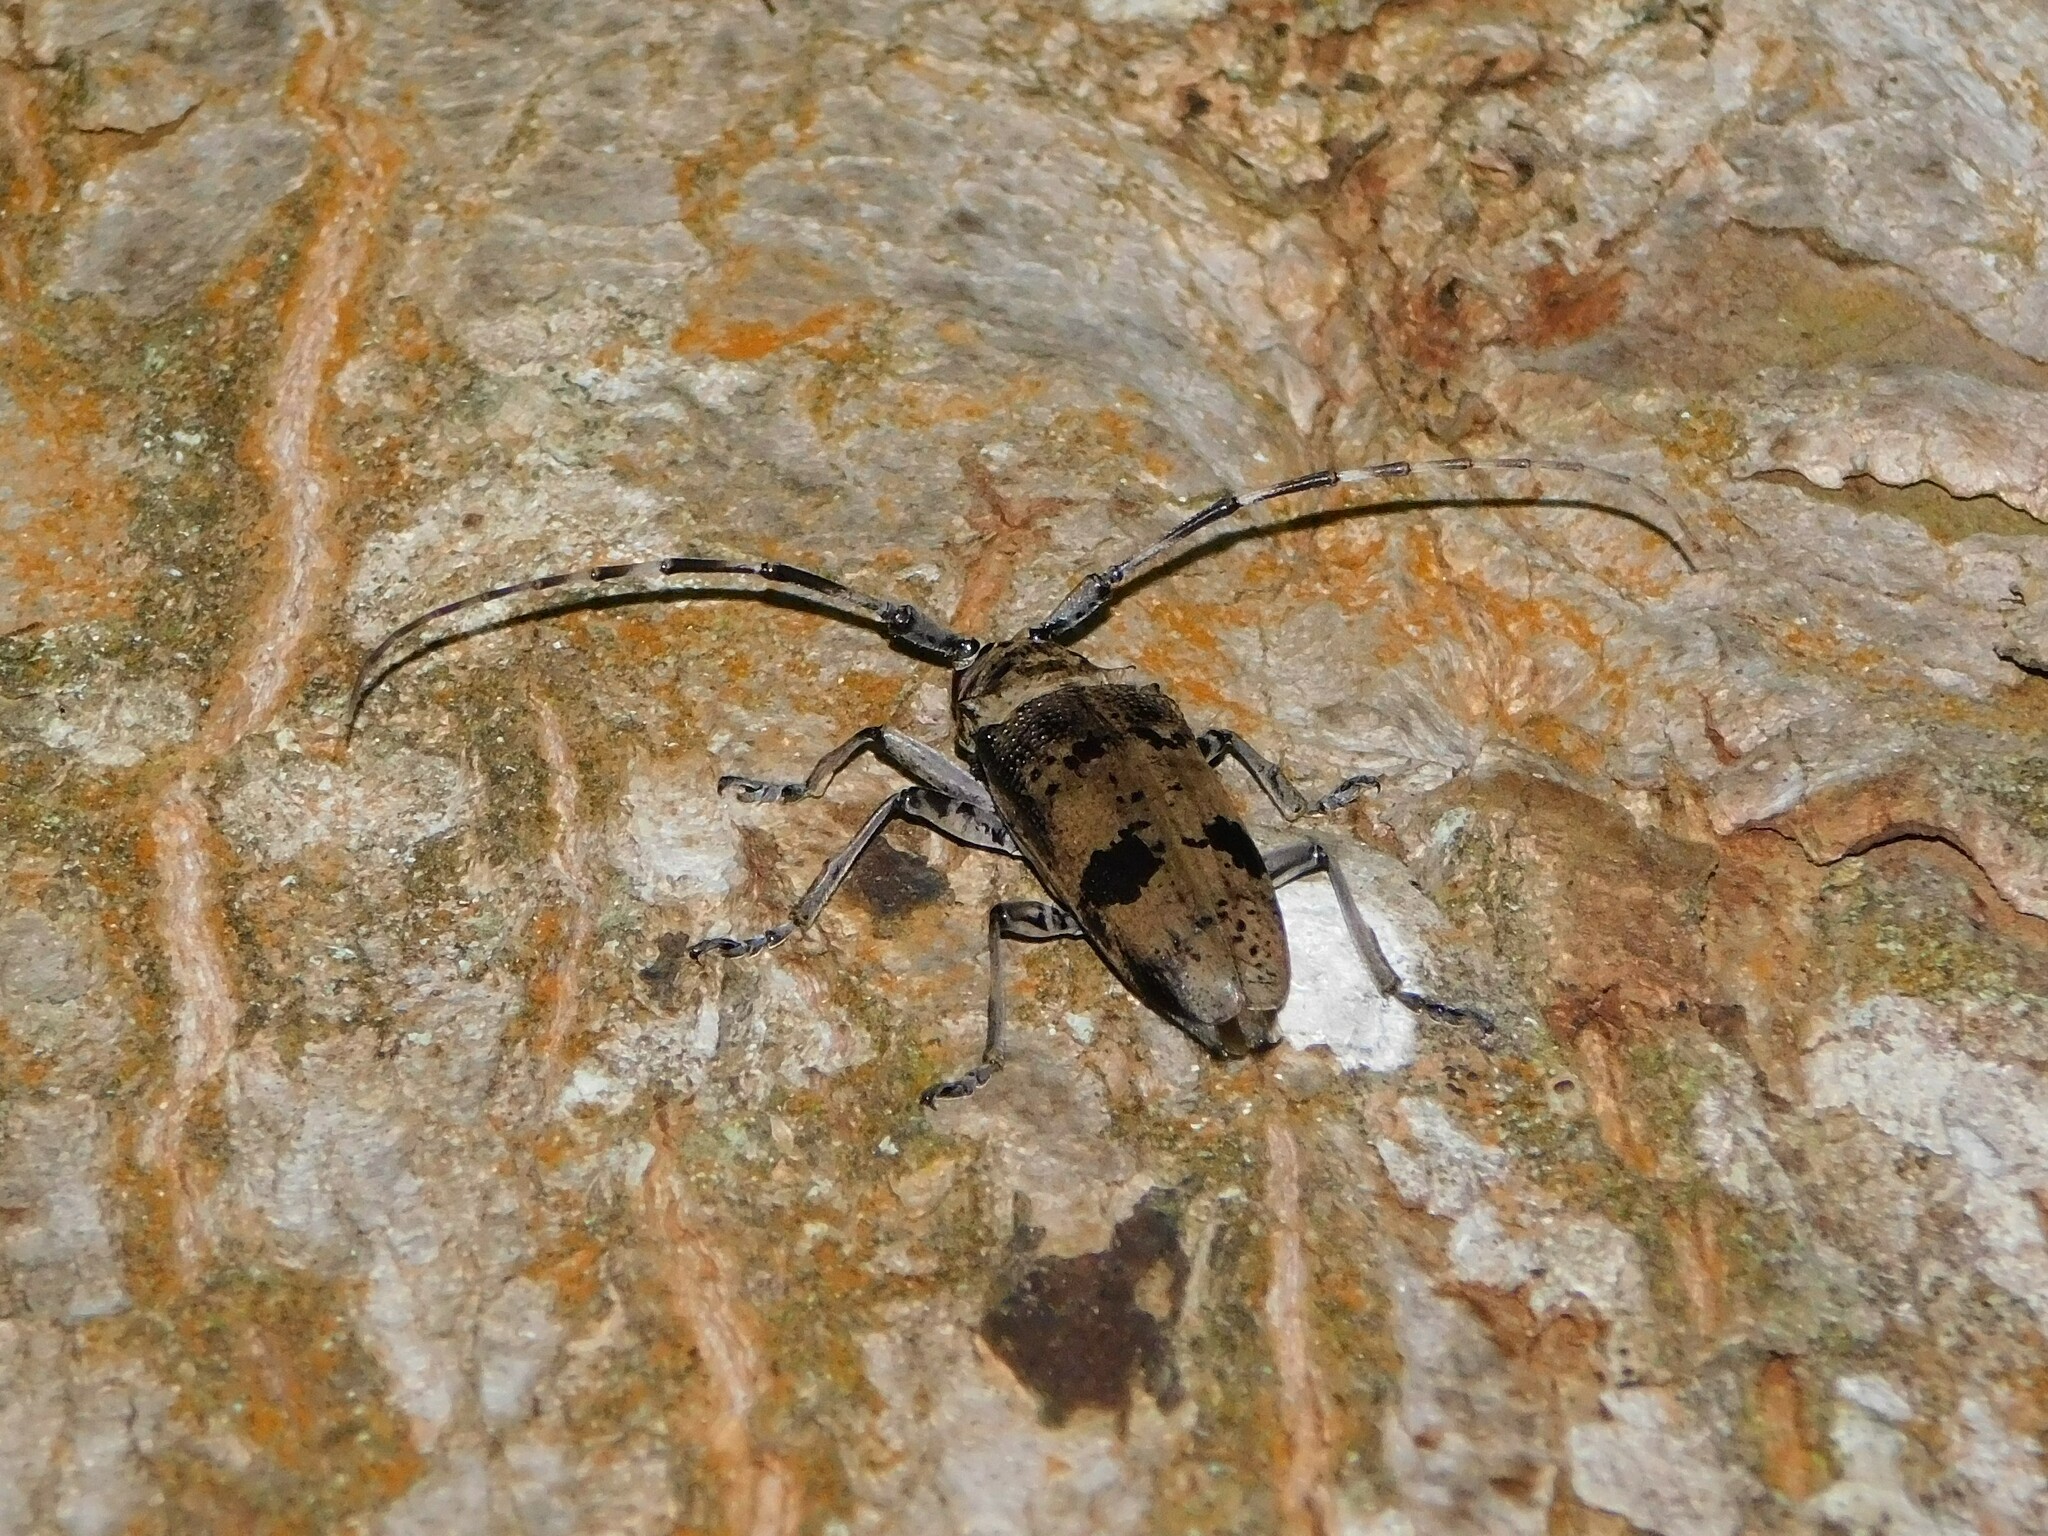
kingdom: Animalia
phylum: Arthropoda
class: Insecta
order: Coleoptera
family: Cerambycidae
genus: Monochamus
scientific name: Monochamus scabiosus
